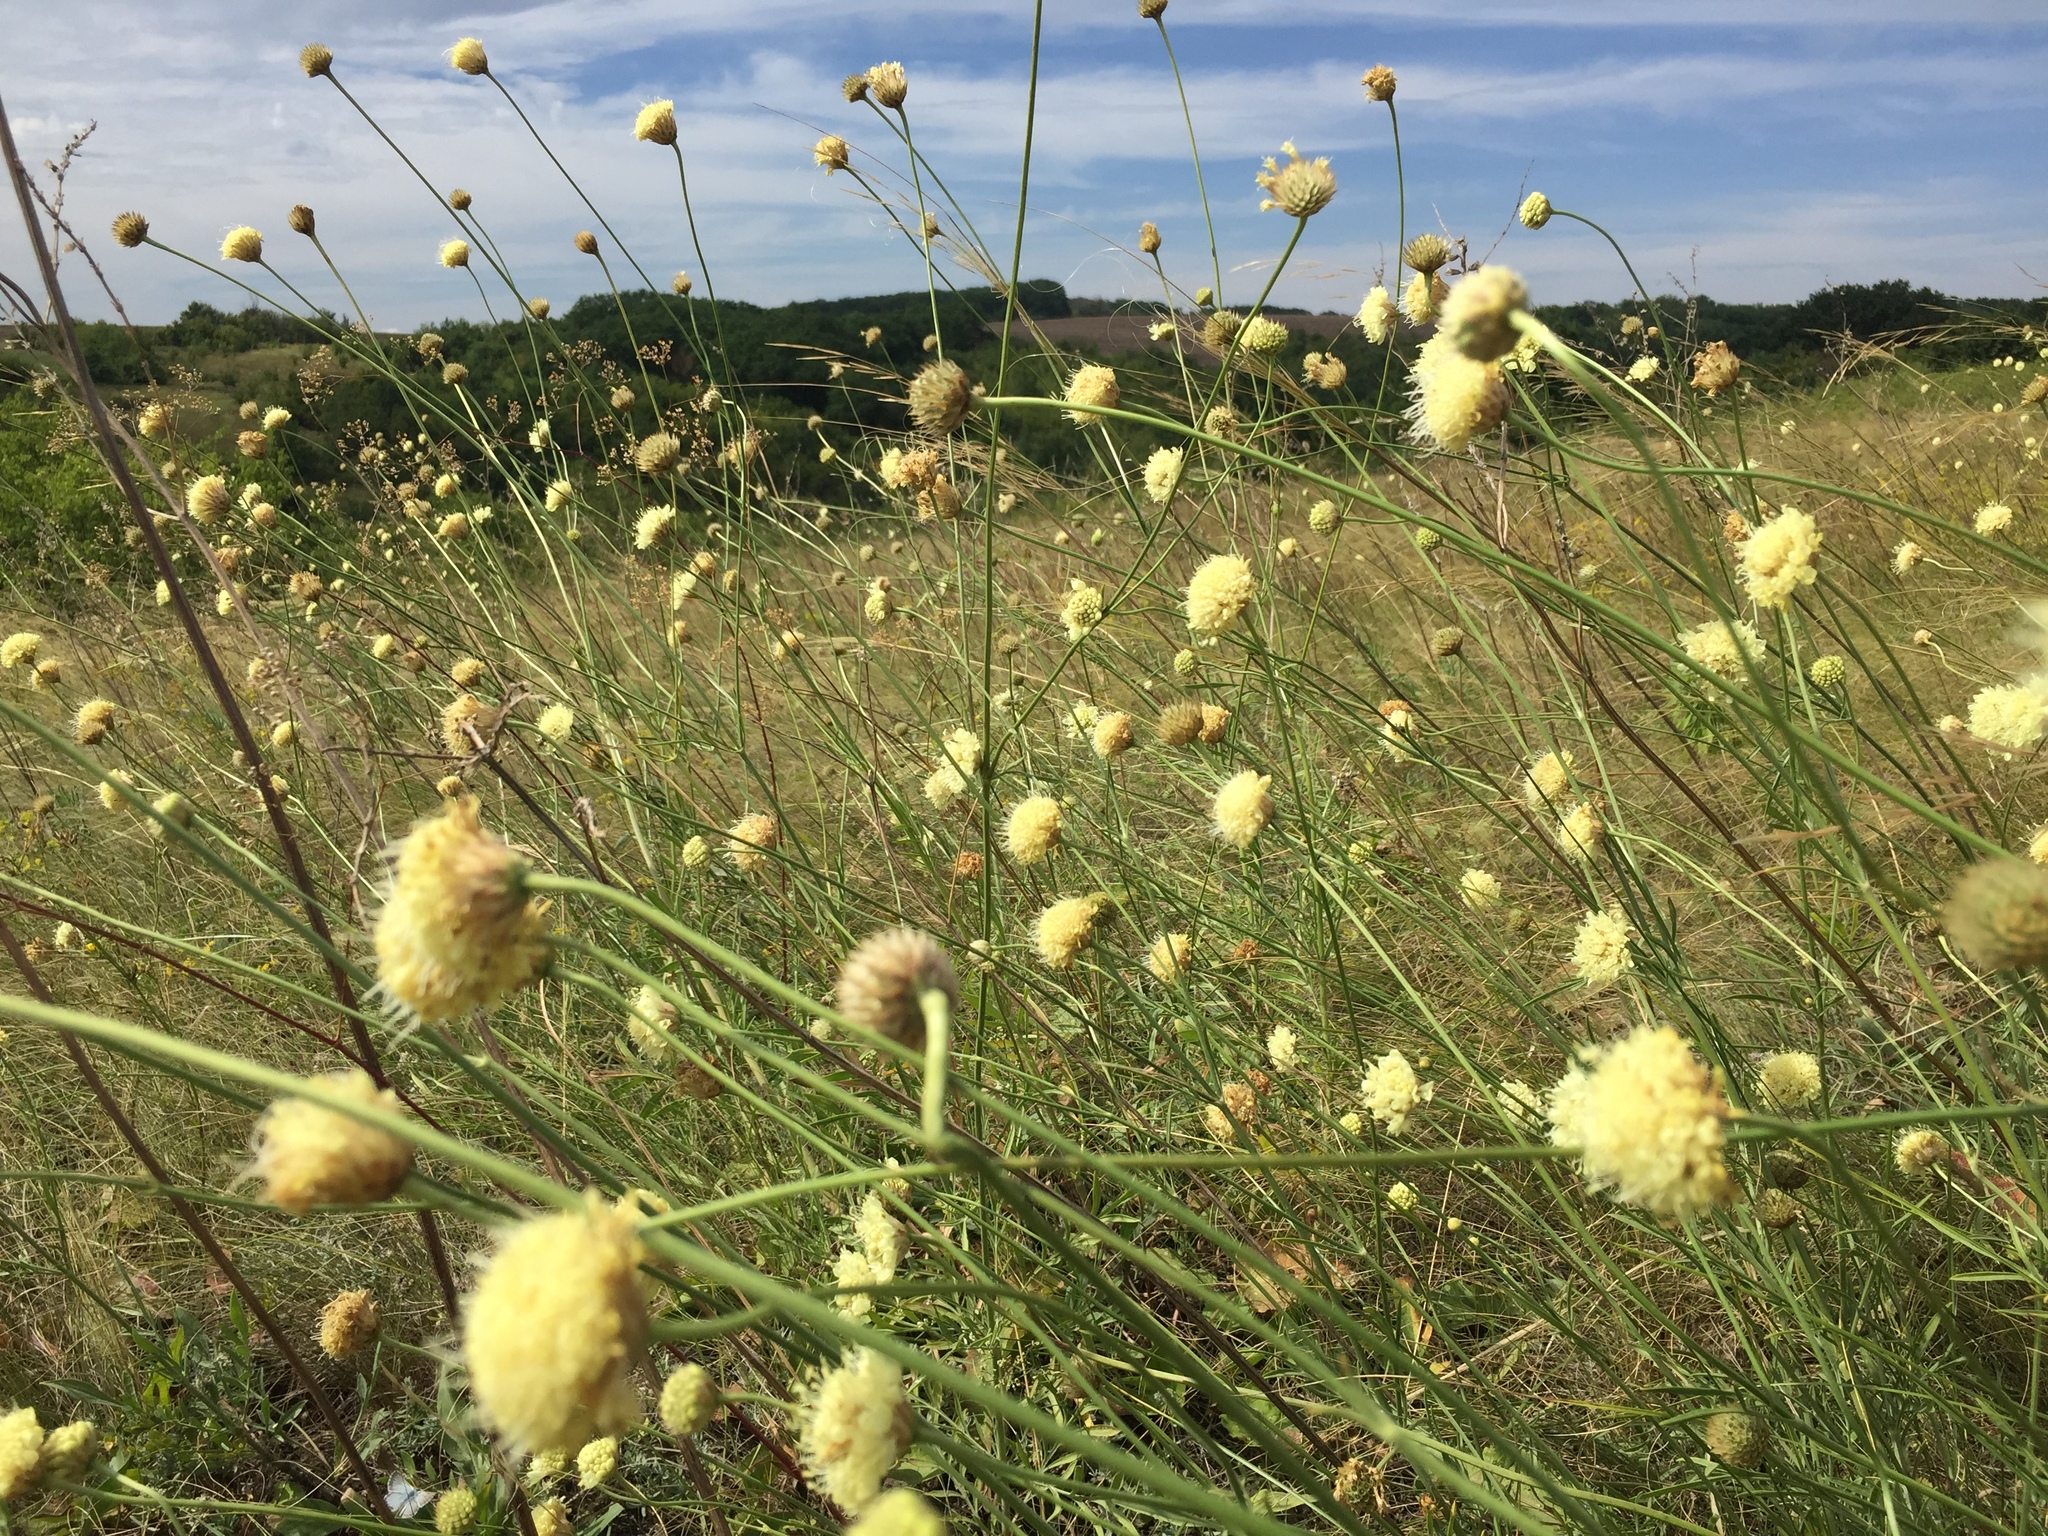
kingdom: Plantae
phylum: Tracheophyta
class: Magnoliopsida
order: Dipsacales
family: Caprifoliaceae
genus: Cephalaria
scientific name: Cephalaria uralensis
